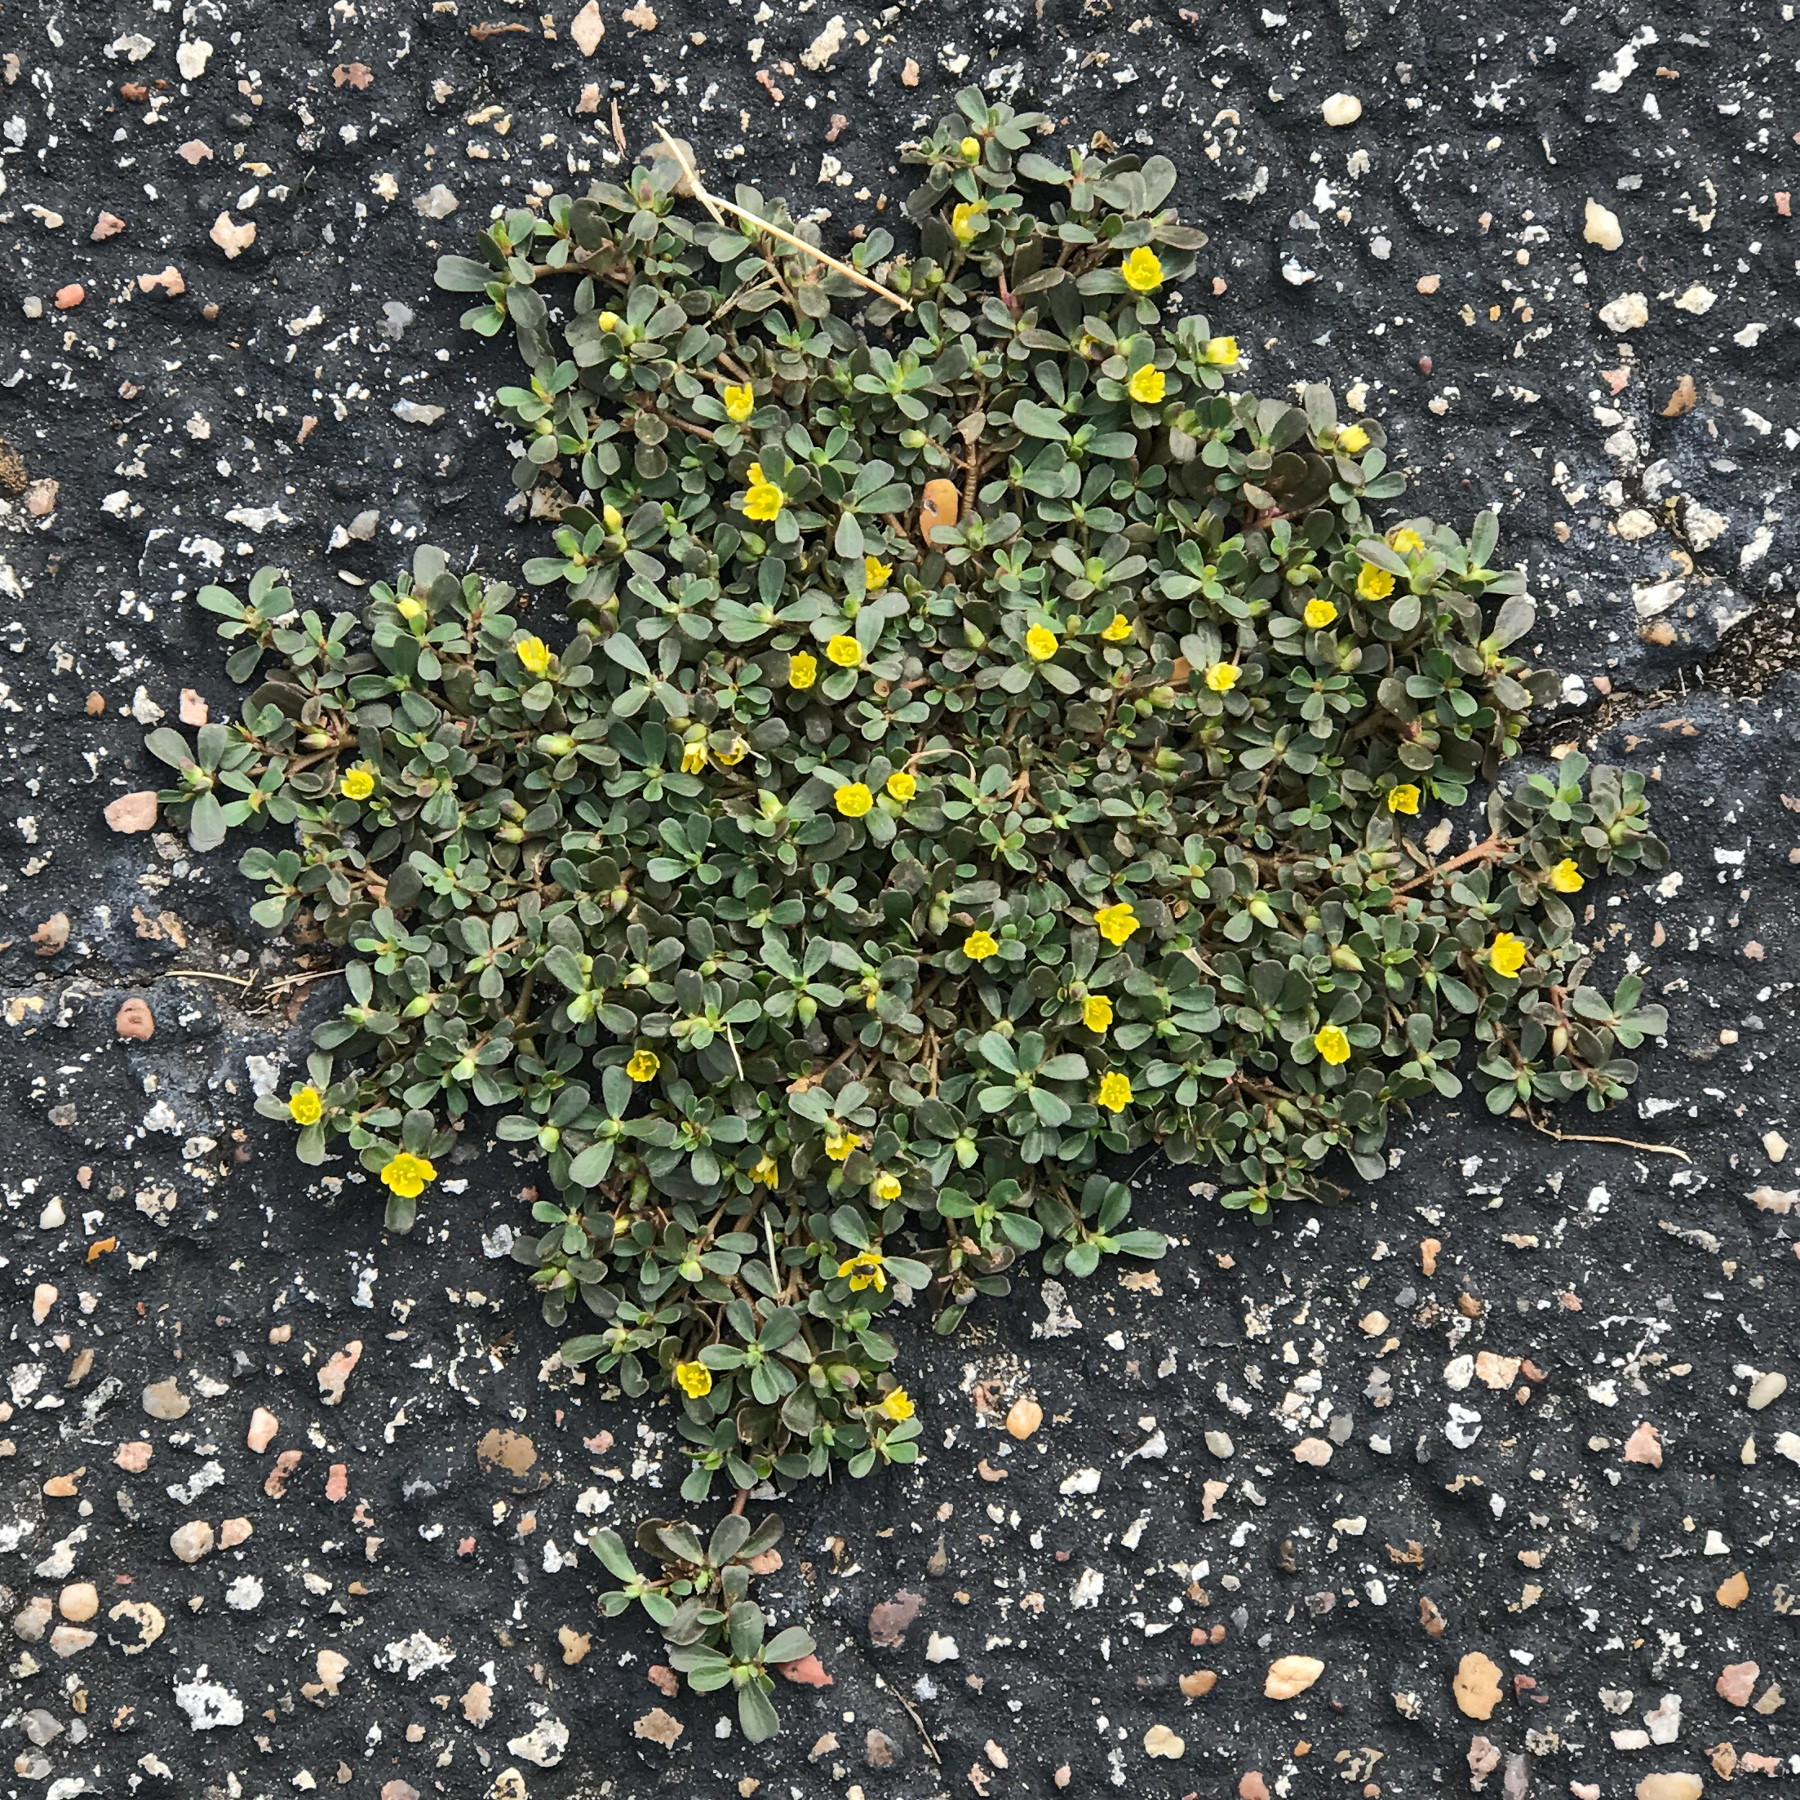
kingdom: Plantae
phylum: Tracheophyta
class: Magnoliopsida
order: Caryophyllales
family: Portulacaceae
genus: Portulaca
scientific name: Portulaca oleracea
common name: Common purslane
